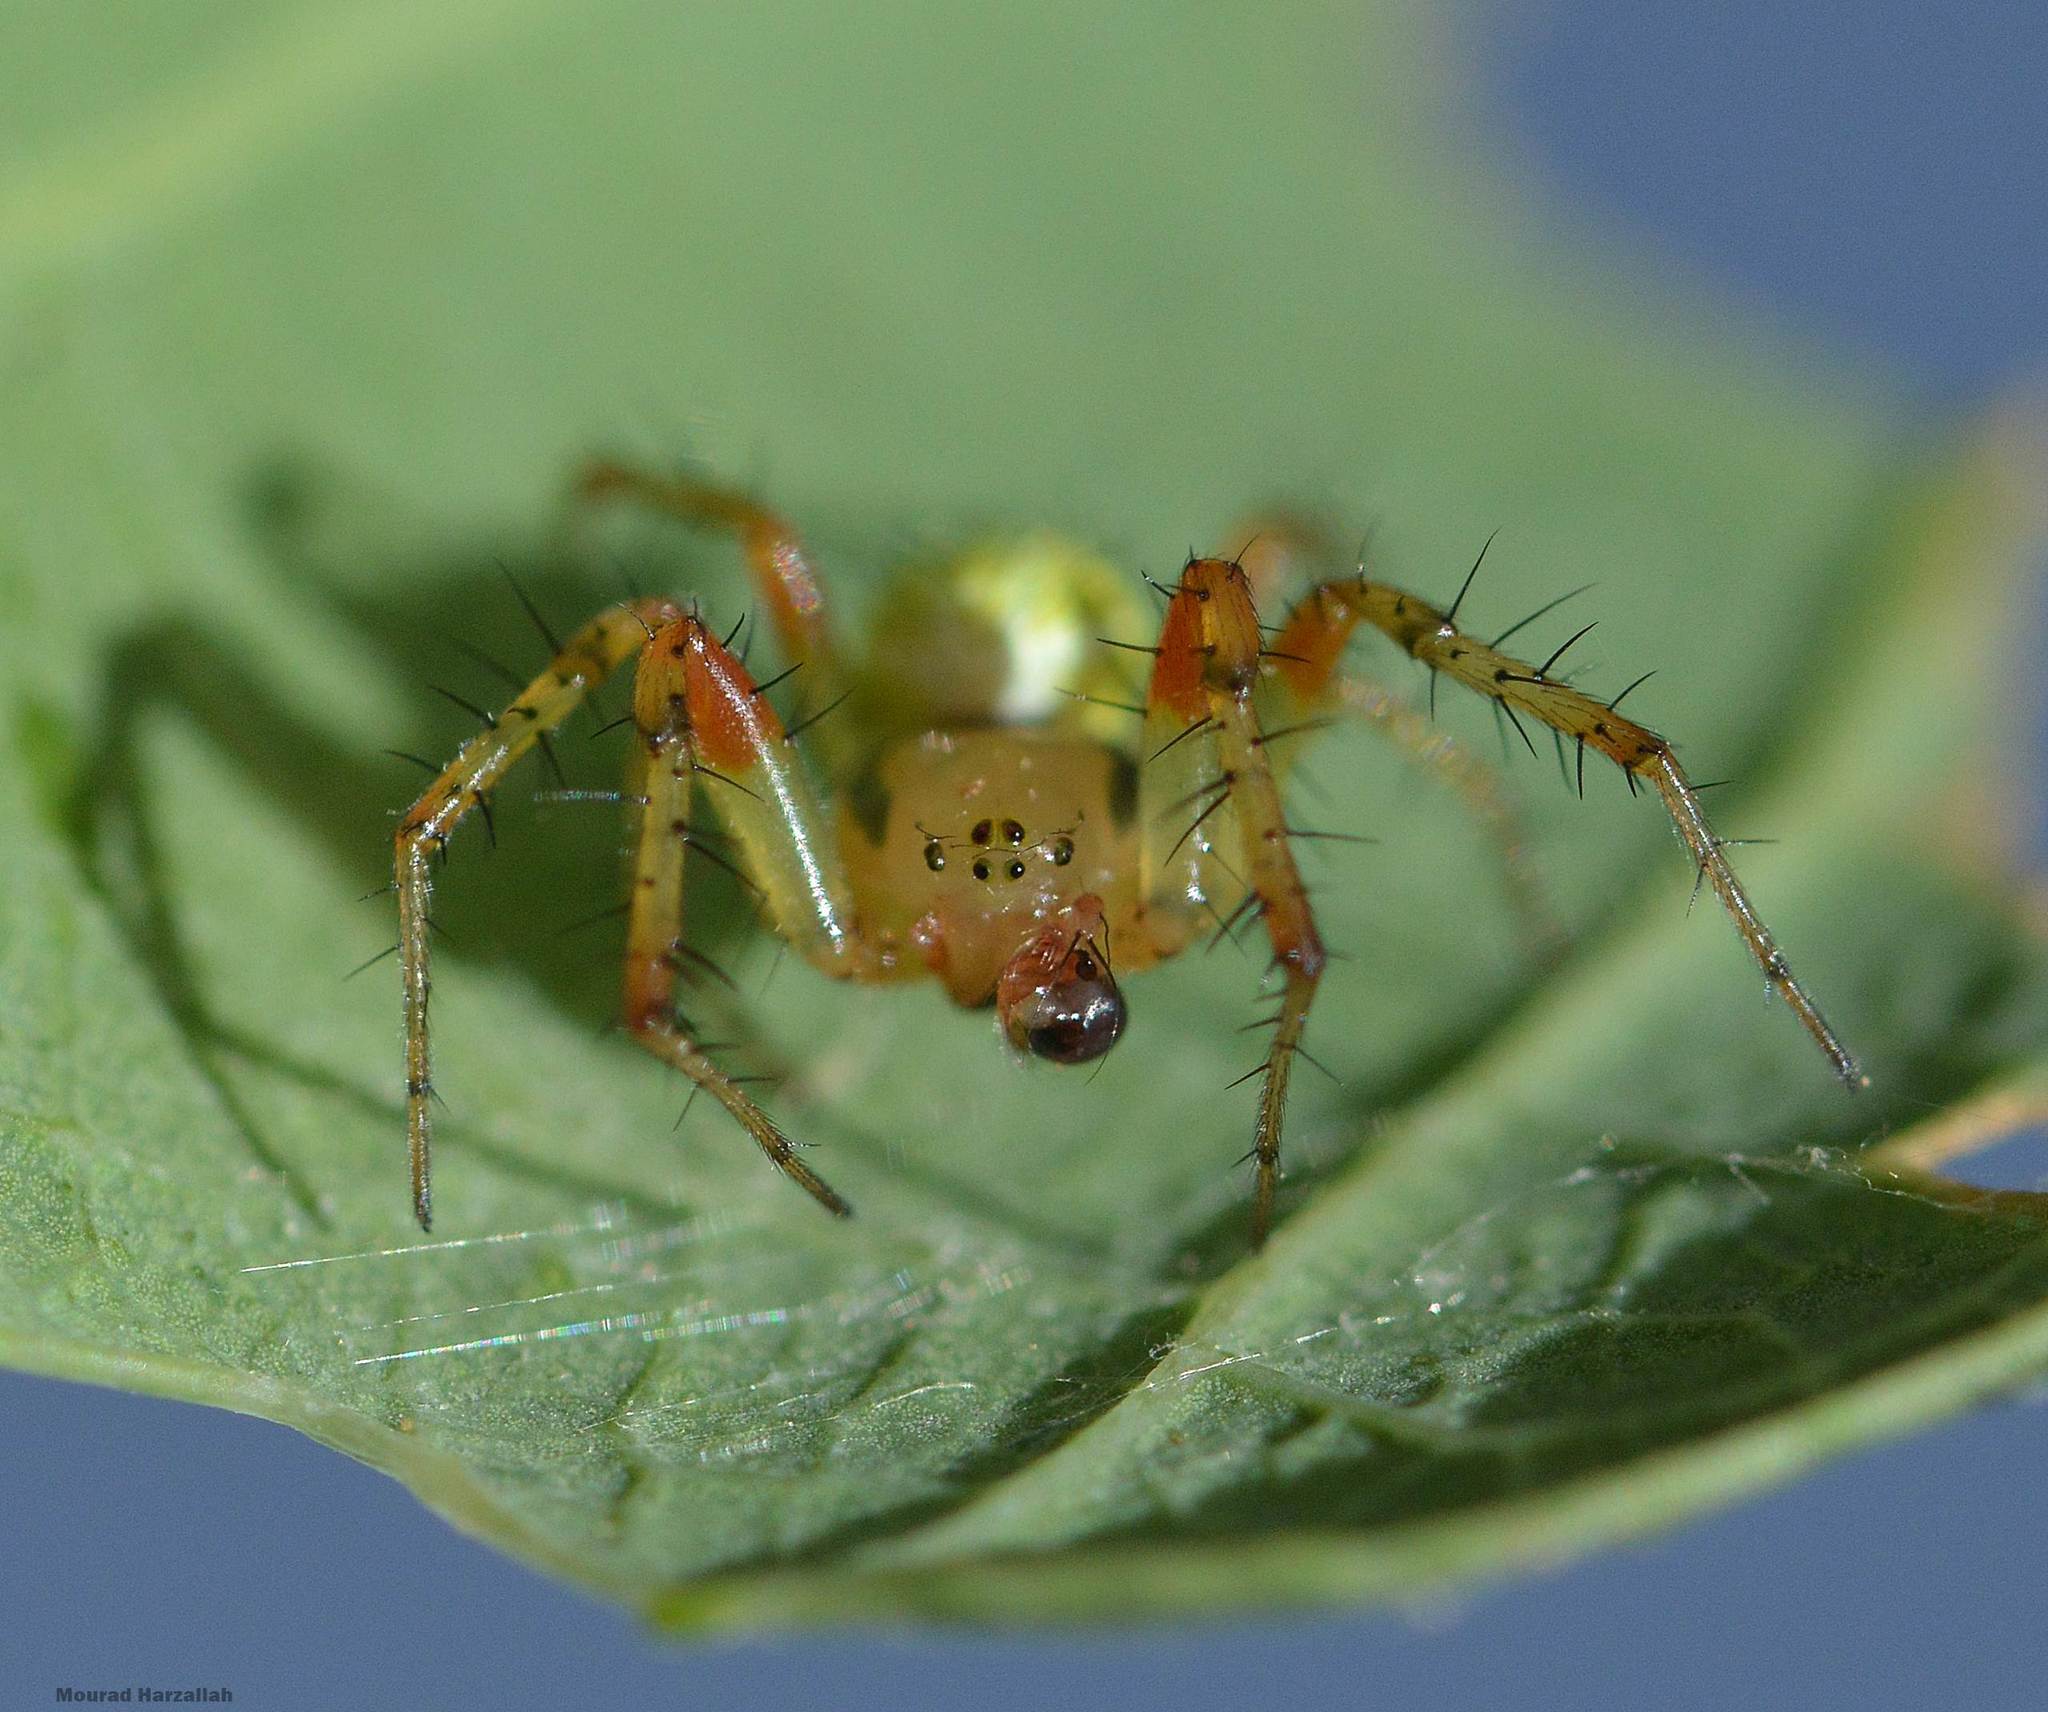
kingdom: Animalia
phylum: Arthropoda
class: Arachnida
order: Araneae
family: Araneidae
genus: Araniella
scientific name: Araniella cucurbitina
